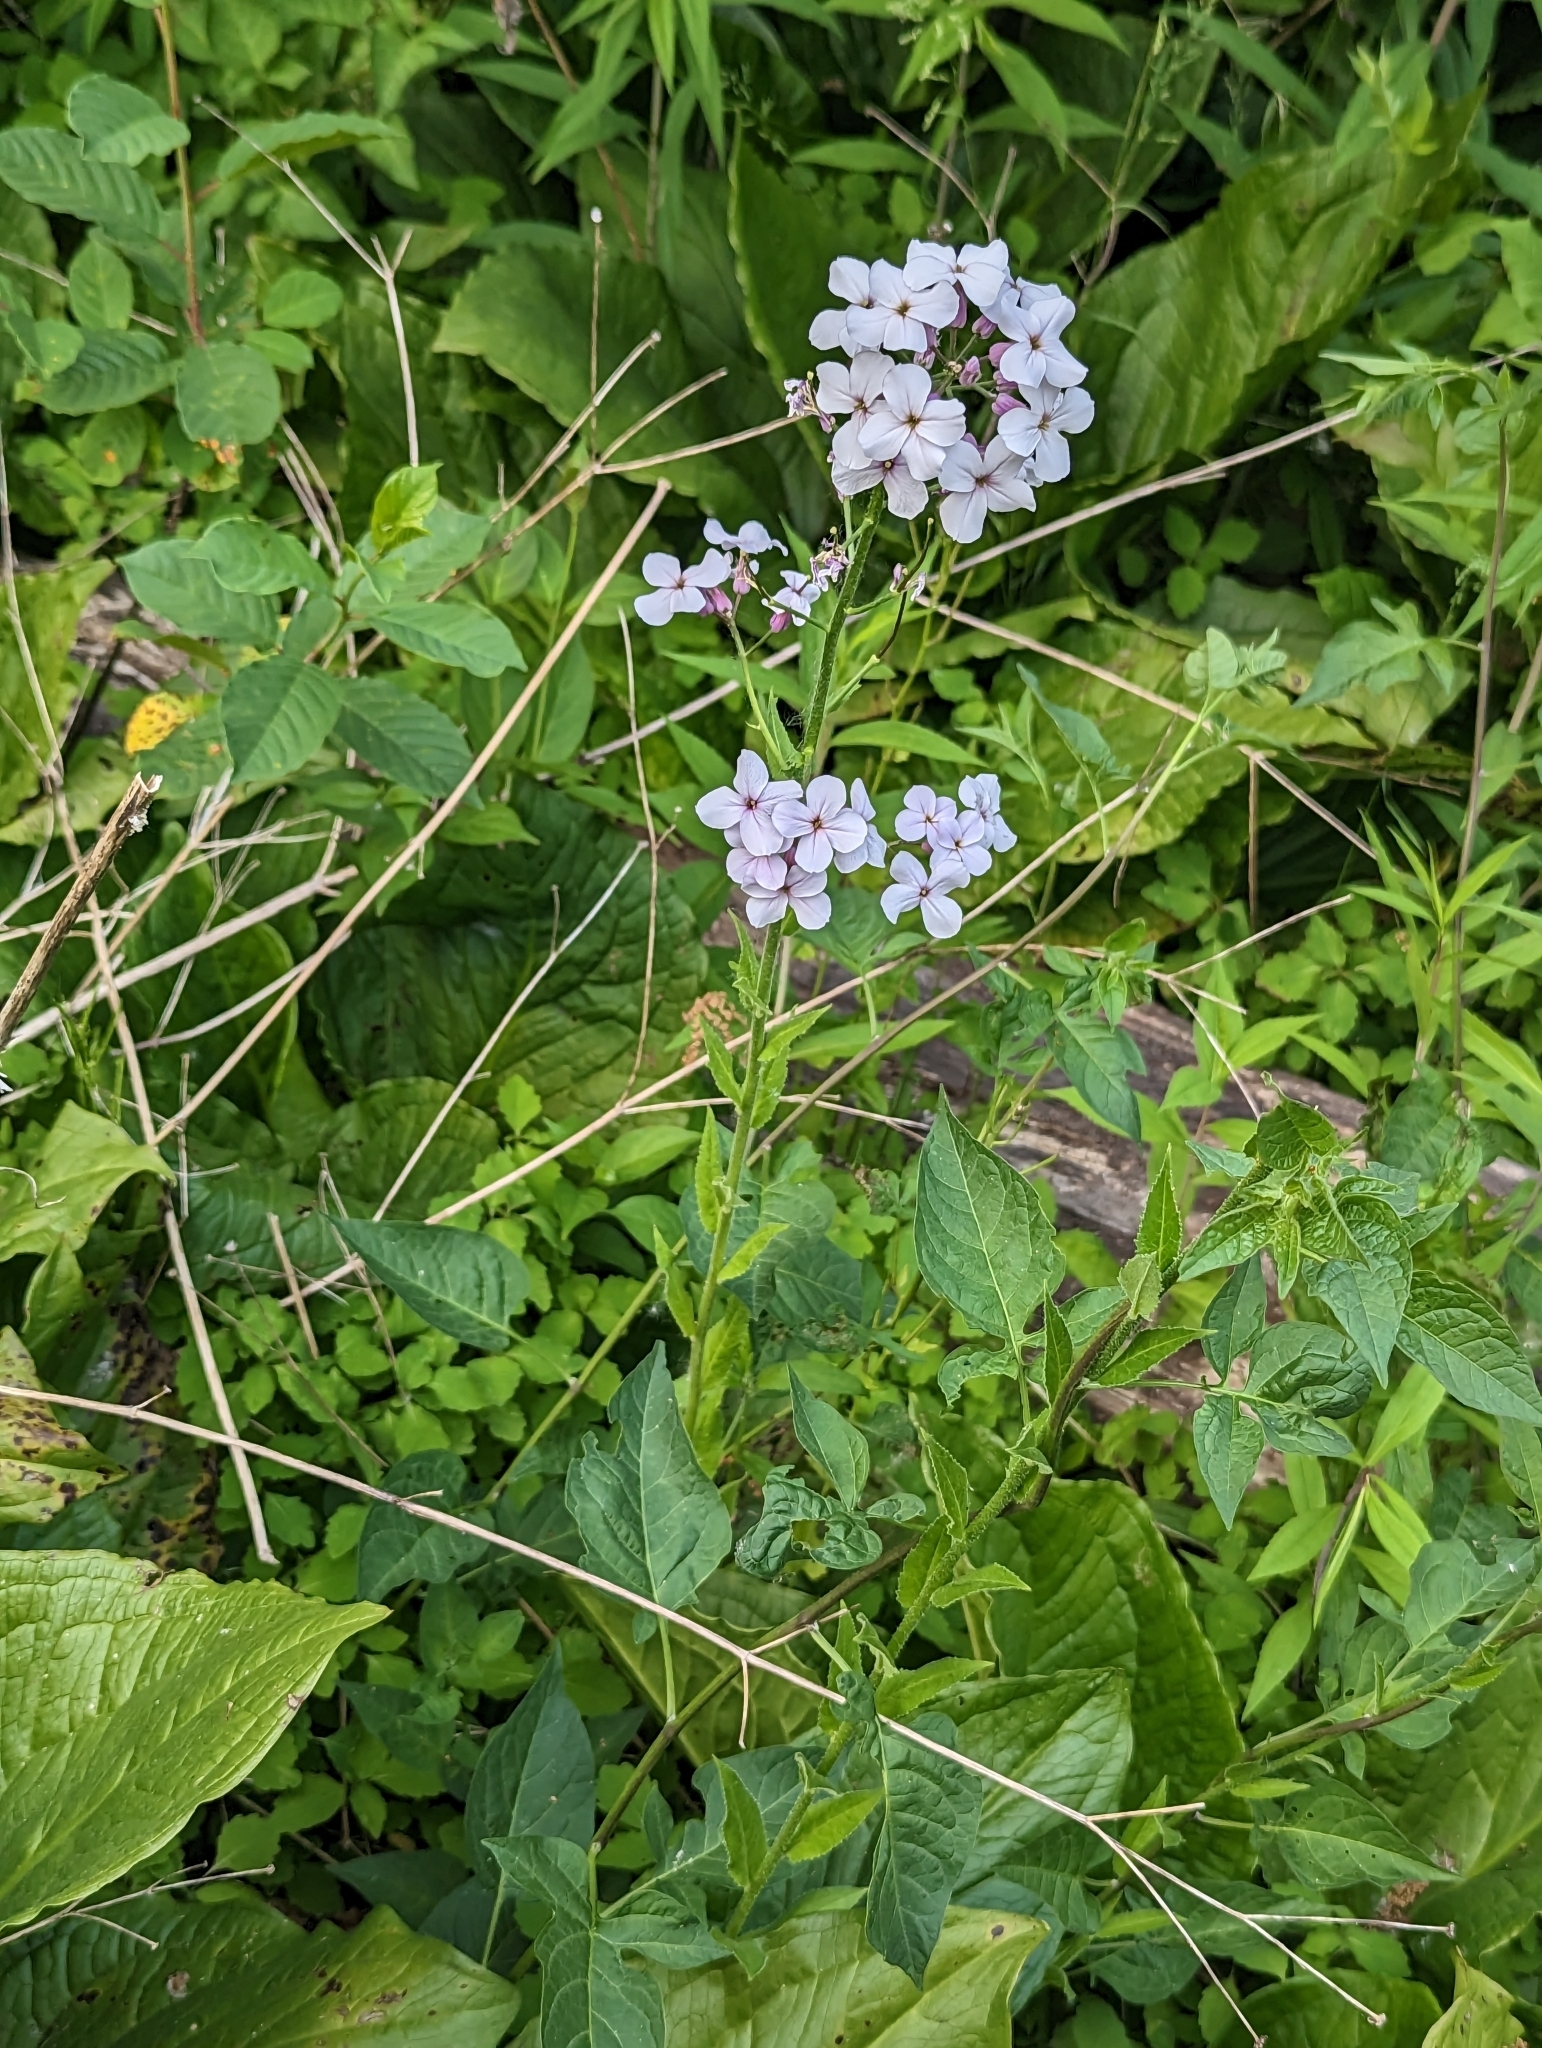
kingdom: Plantae
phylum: Tracheophyta
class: Magnoliopsida
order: Brassicales
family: Brassicaceae
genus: Hesperis
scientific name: Hesperis matronalis
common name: Dame's-violet
